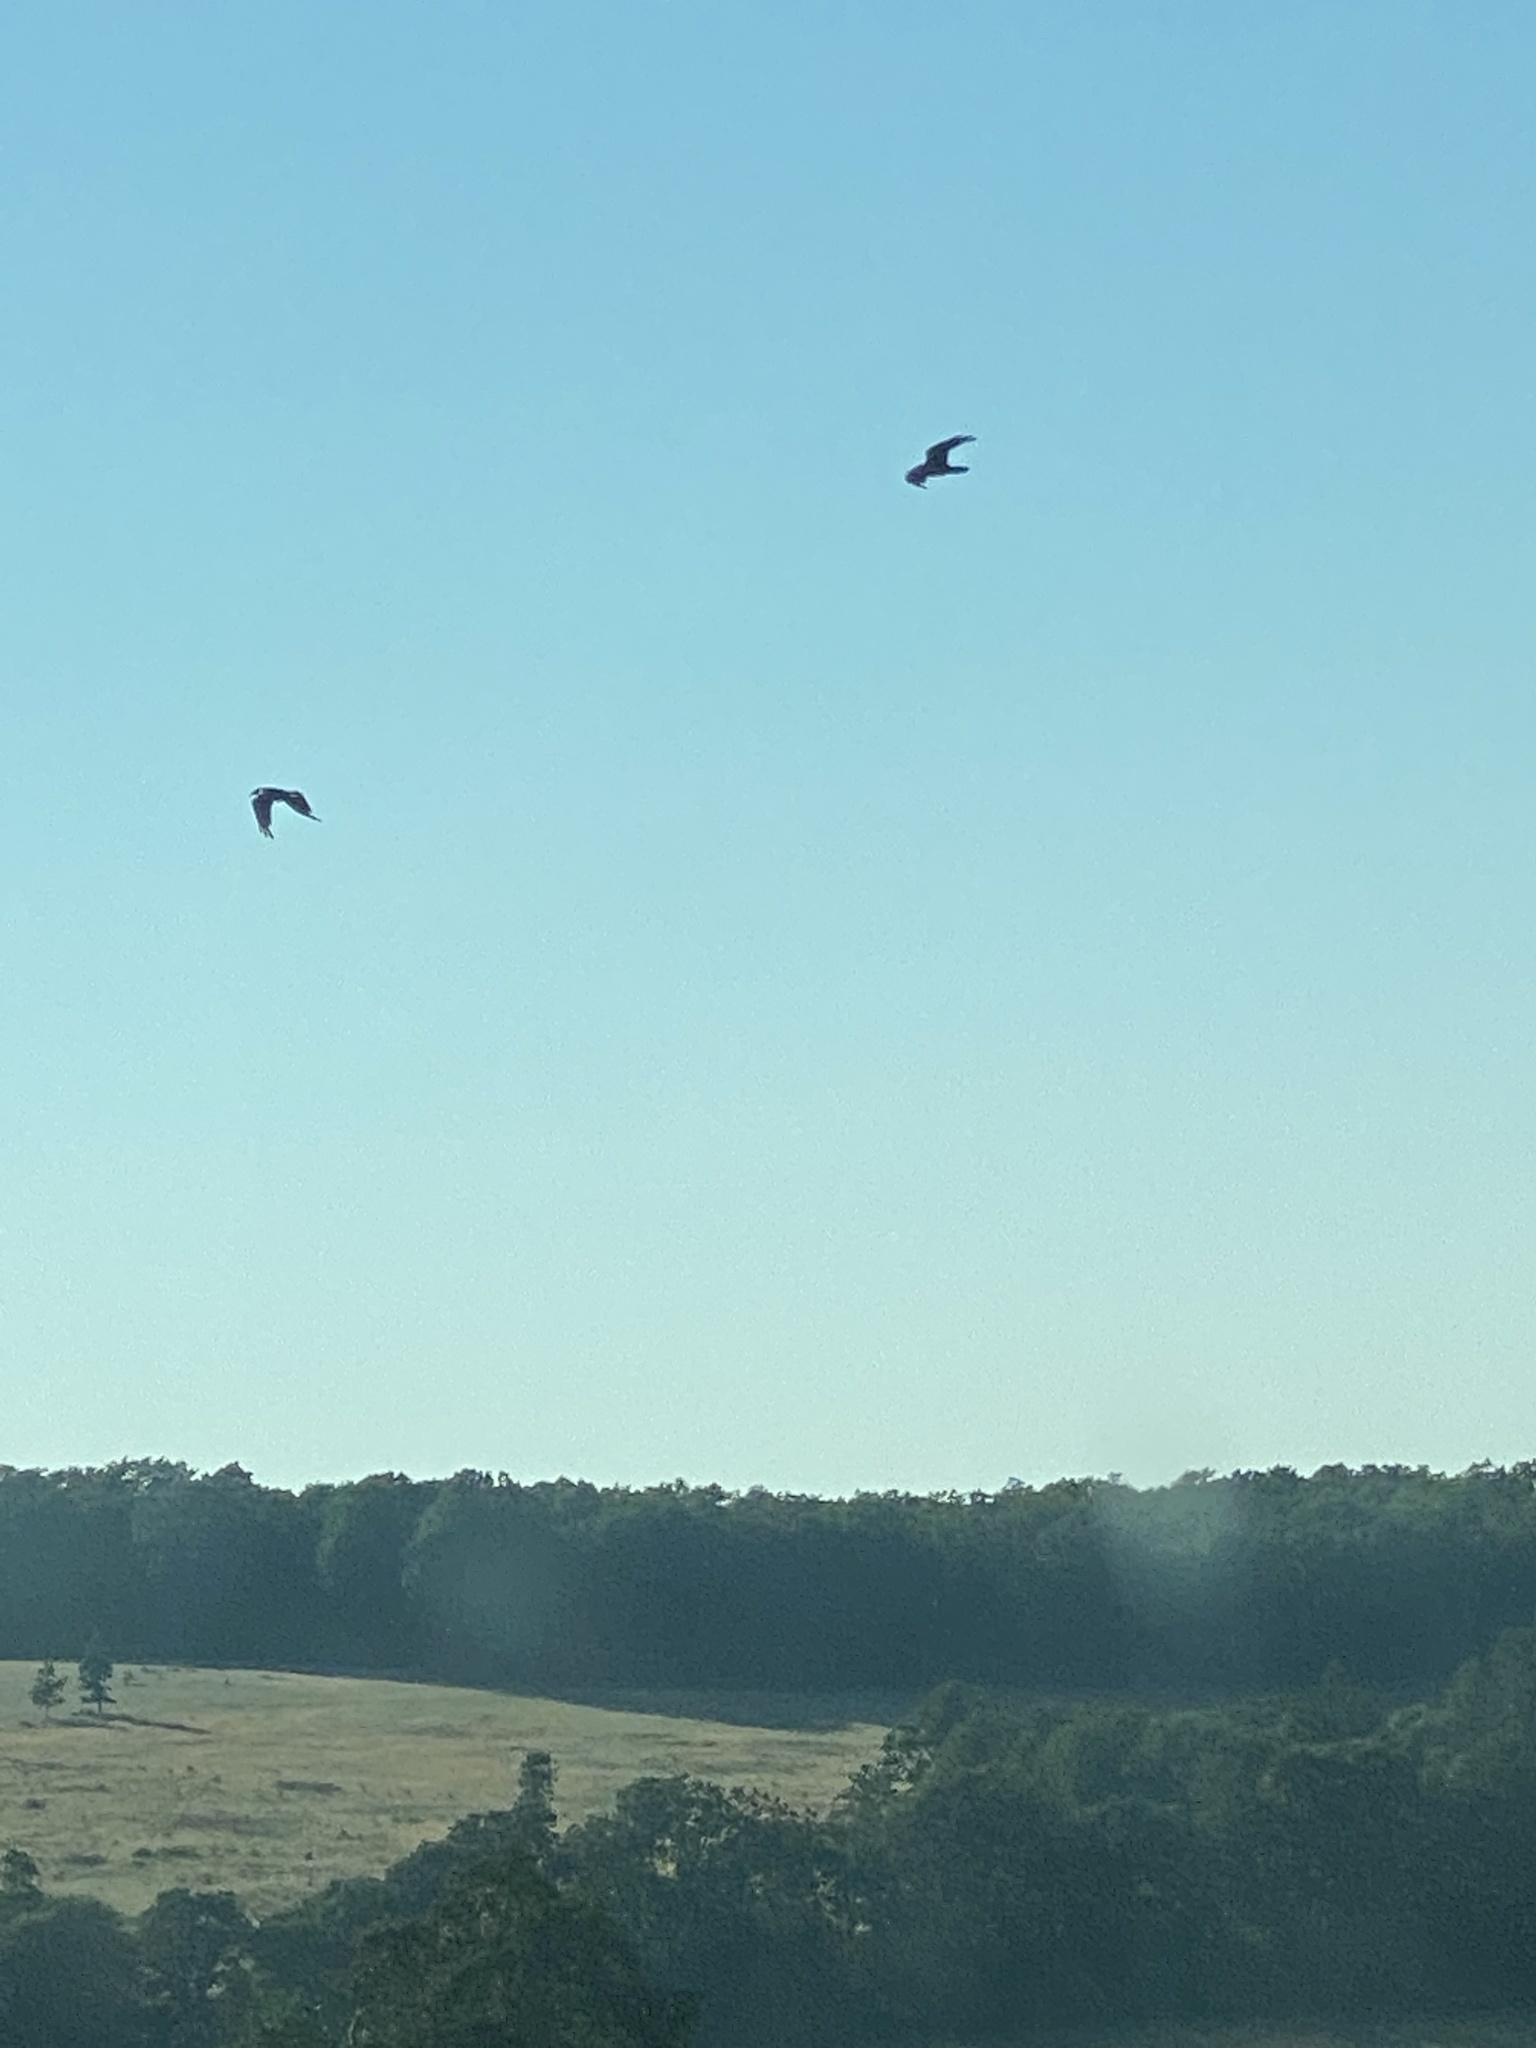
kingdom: Animalia
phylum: Chordata
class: Aves
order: Passeriformes
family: Corvidae
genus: Corvus
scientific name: Corvus corax
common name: Common raven
